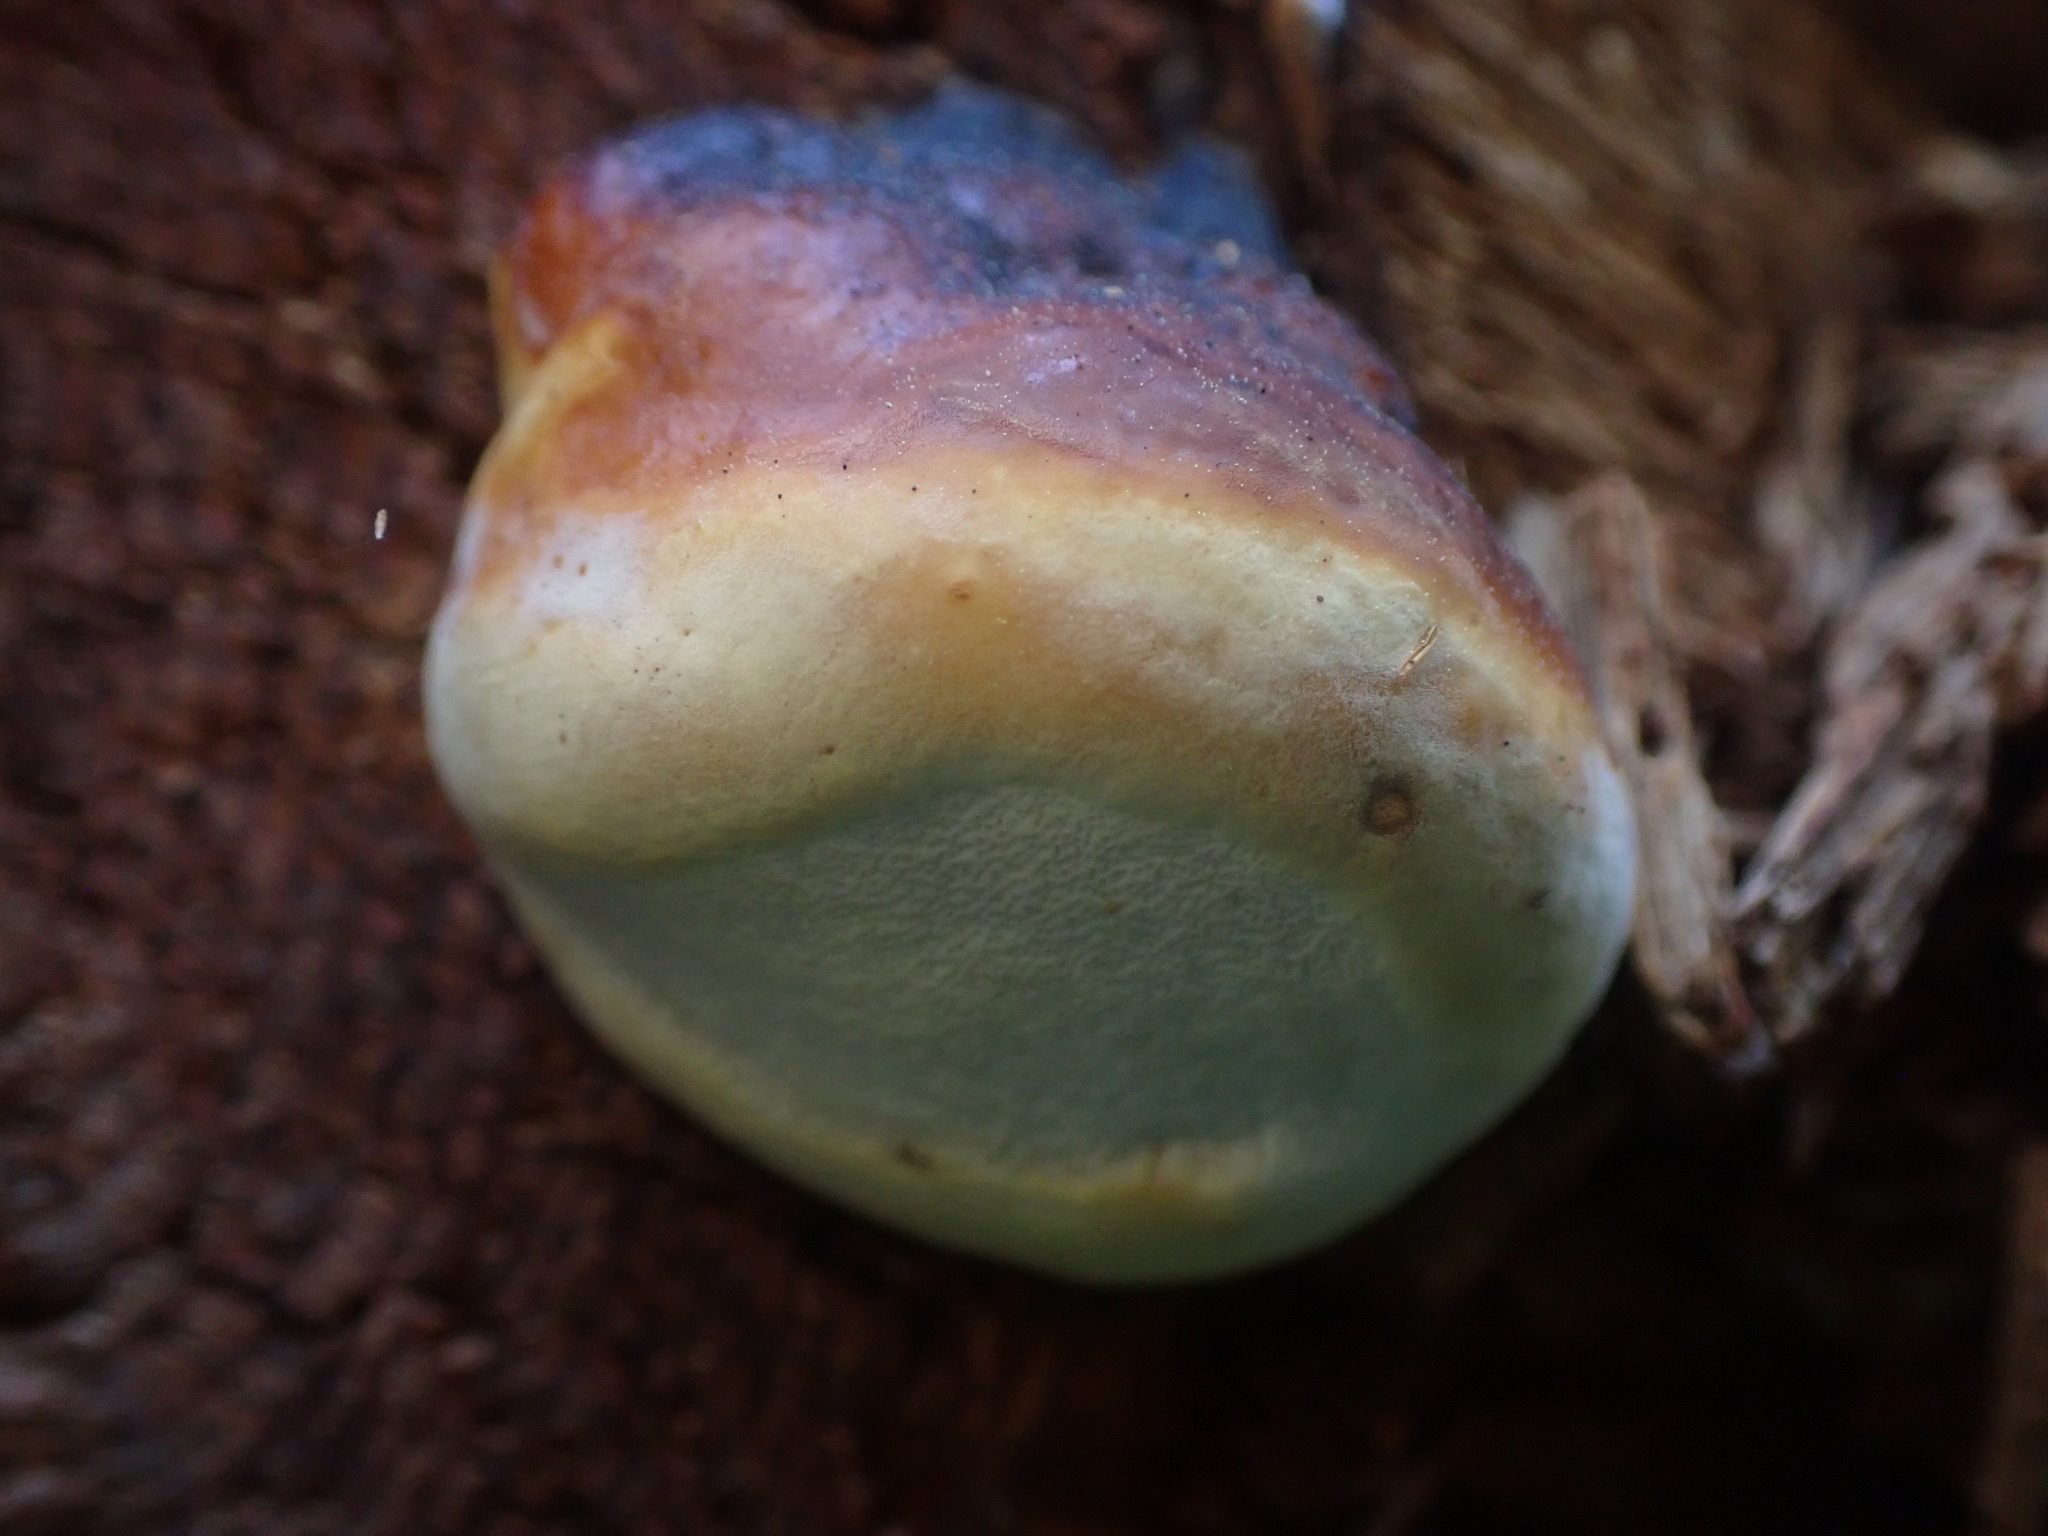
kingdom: Fungi
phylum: Basidiomycota
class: Agaricomycetes
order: Polyporales
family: Fomitopsidaceae
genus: Fomitopsis
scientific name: Fomitopsis mounceae
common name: Northern red belt
